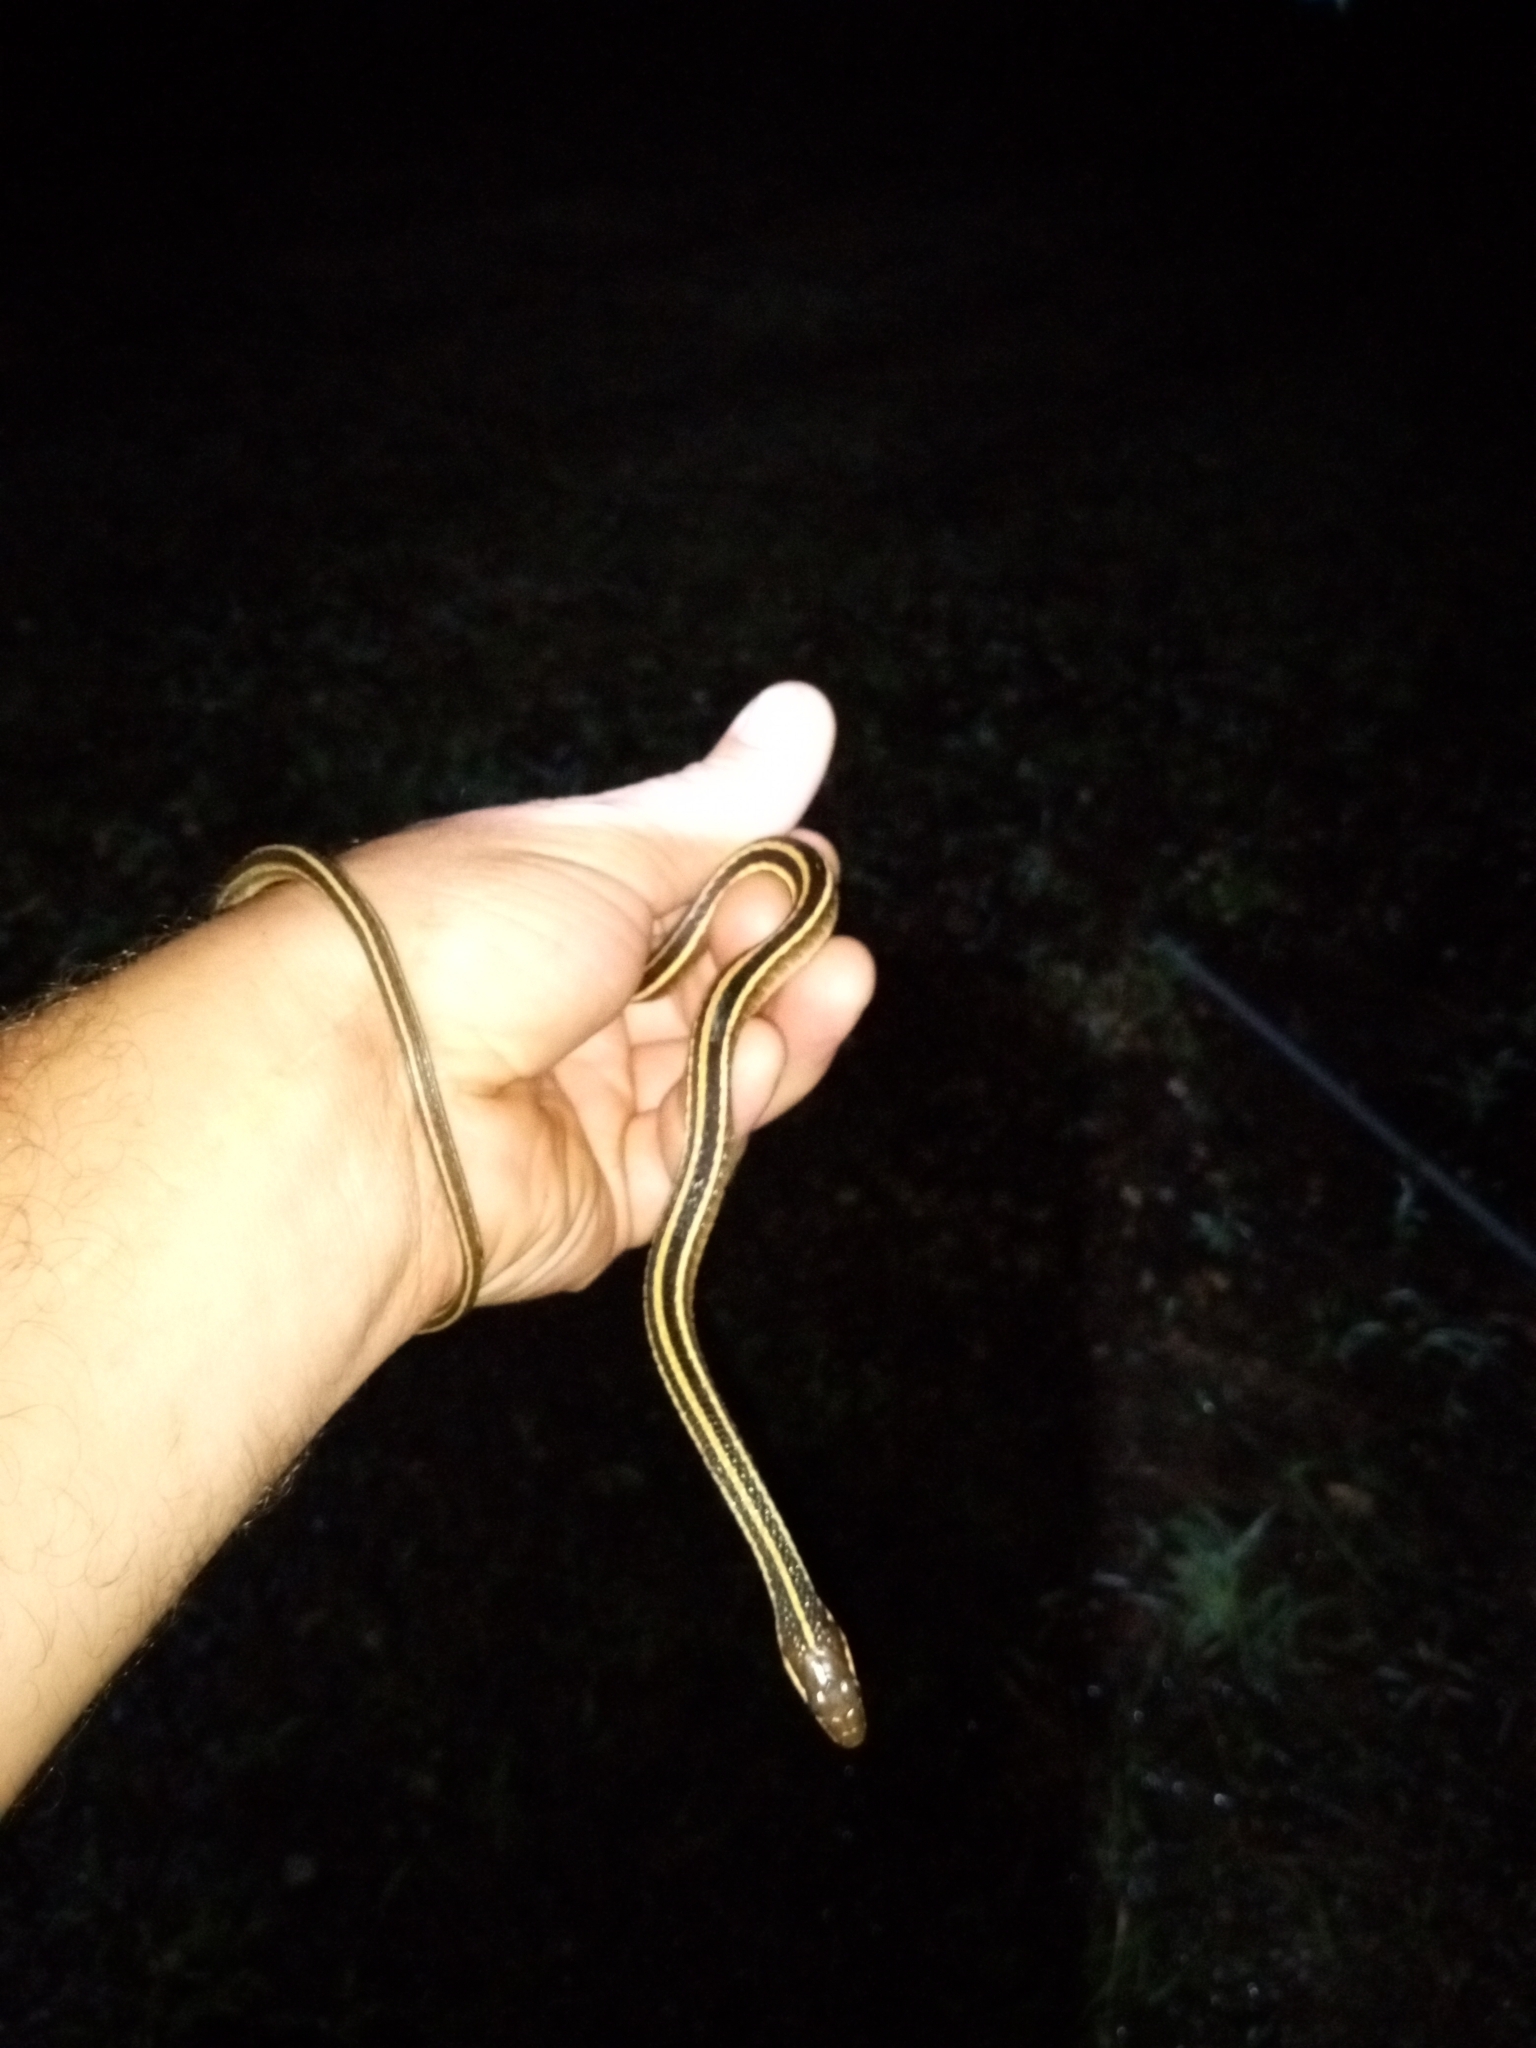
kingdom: Animalia
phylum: Chordata
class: Squamata
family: Colubridae
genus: Thamnophis
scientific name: Thamnophis saurita
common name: Eastern ribbonsnake
